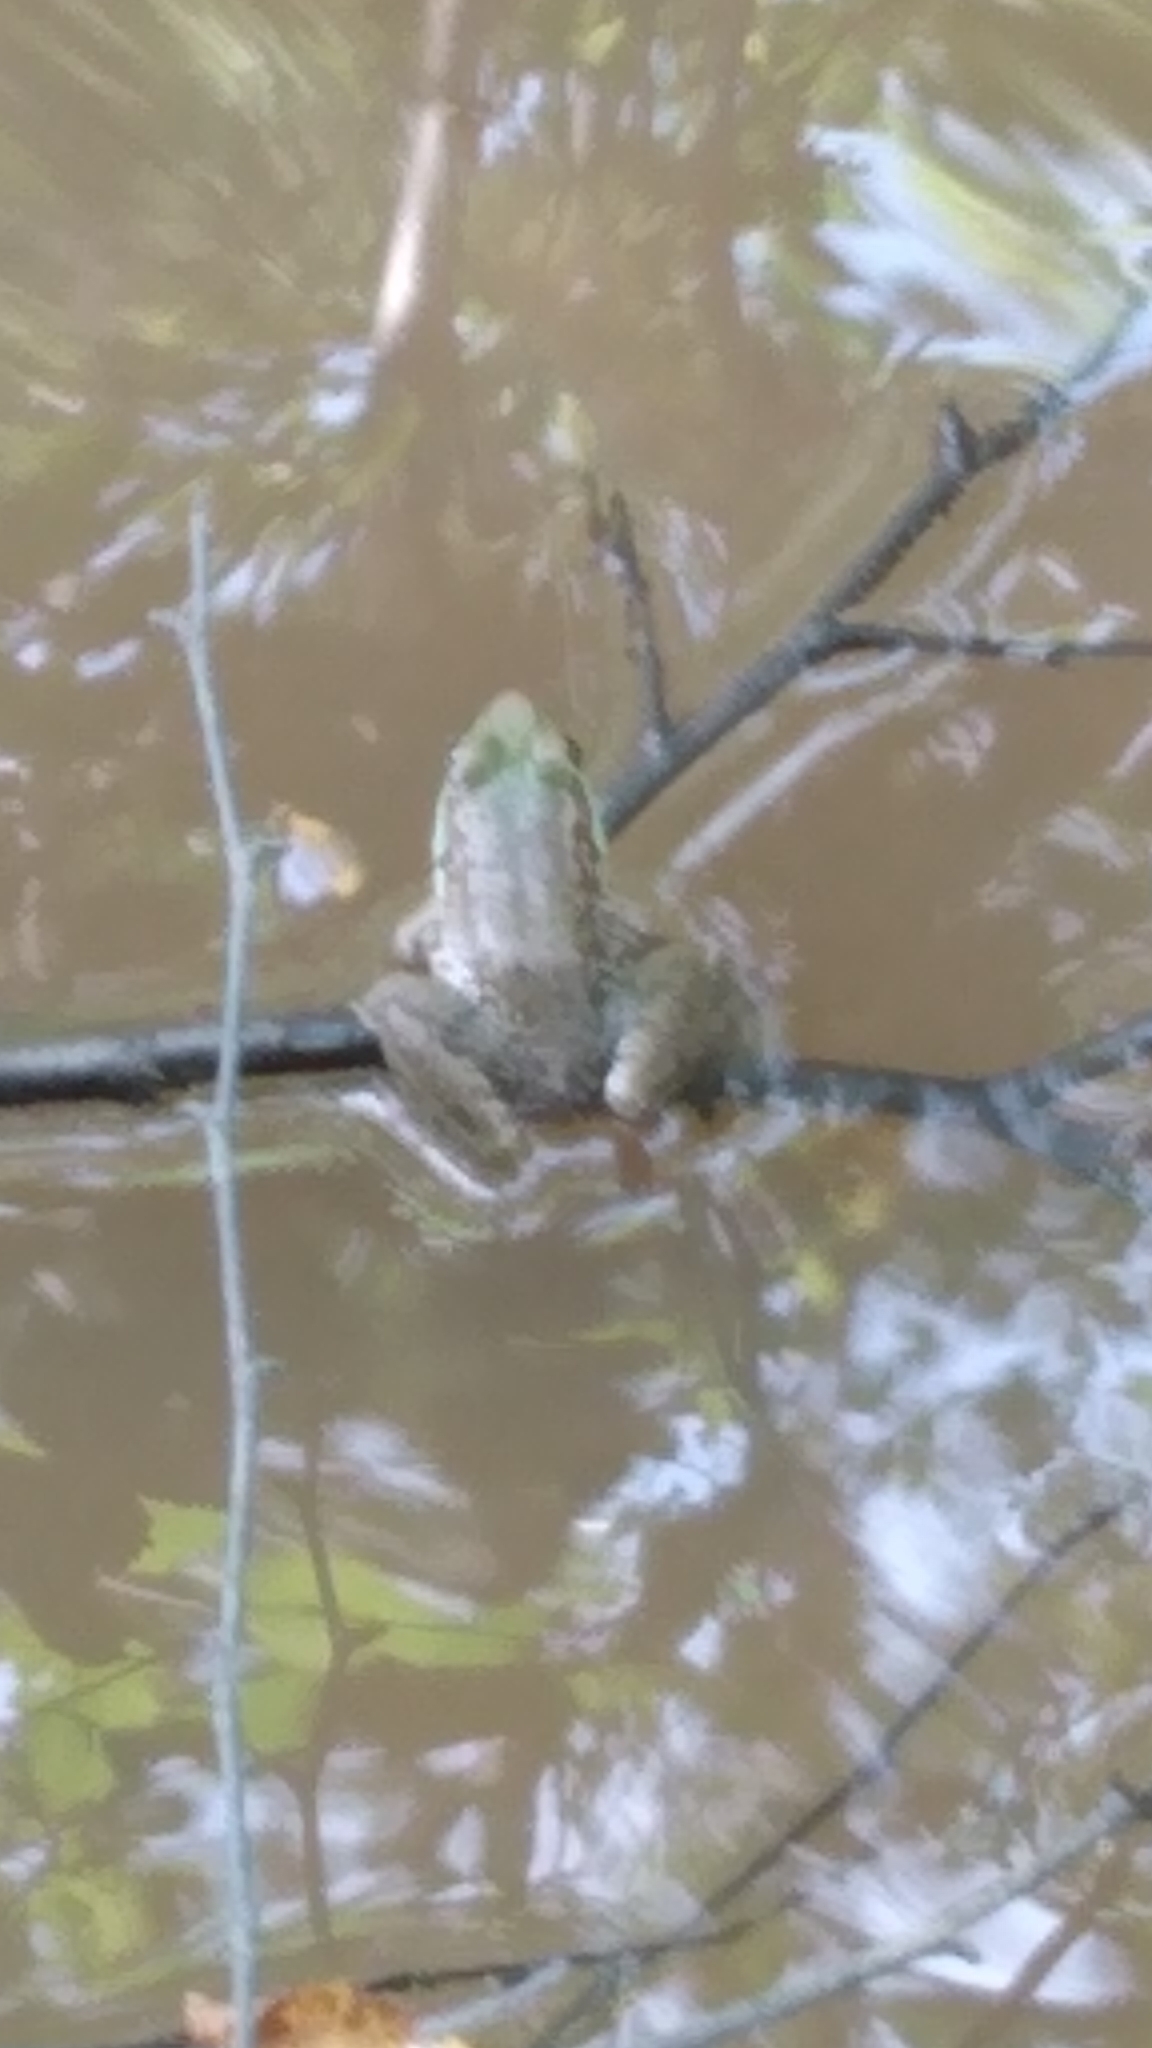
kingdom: Animalia
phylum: Chordata
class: Amphibia
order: Anura
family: Ranidae
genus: Lithobates
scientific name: Lithobates clamitans
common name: Green frog
